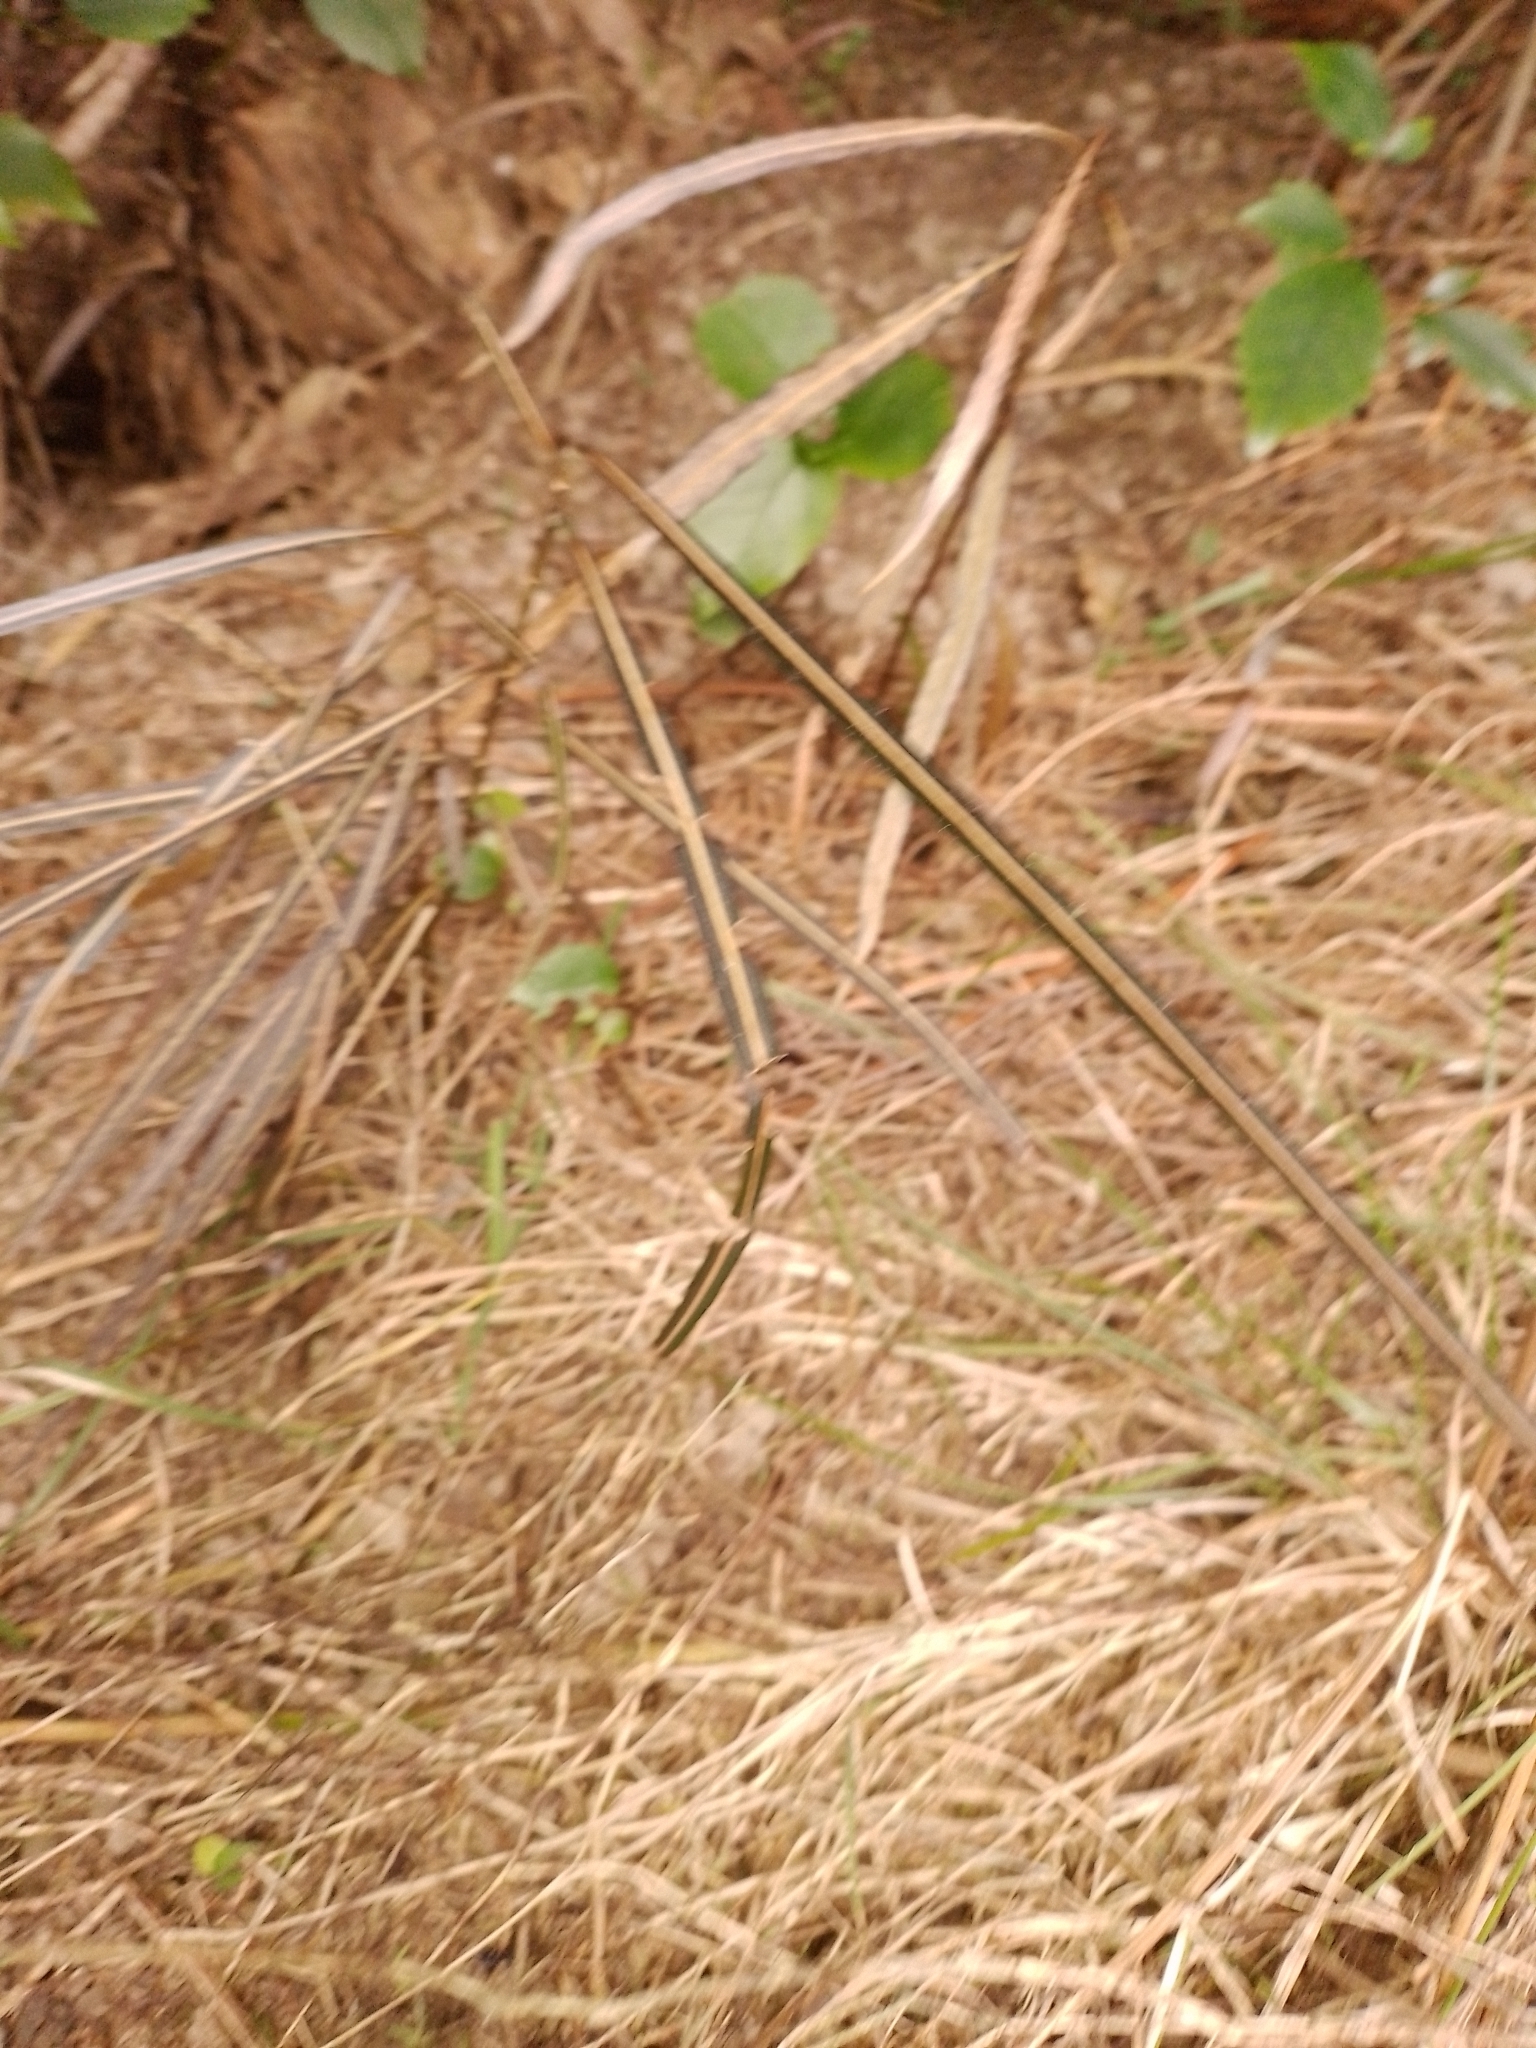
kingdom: Plantae
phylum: Tracheophyta
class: Magnoliopsida
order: Apiales
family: Araliaceae
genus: Pseudopanax
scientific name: Pseudopanax crassifolius
